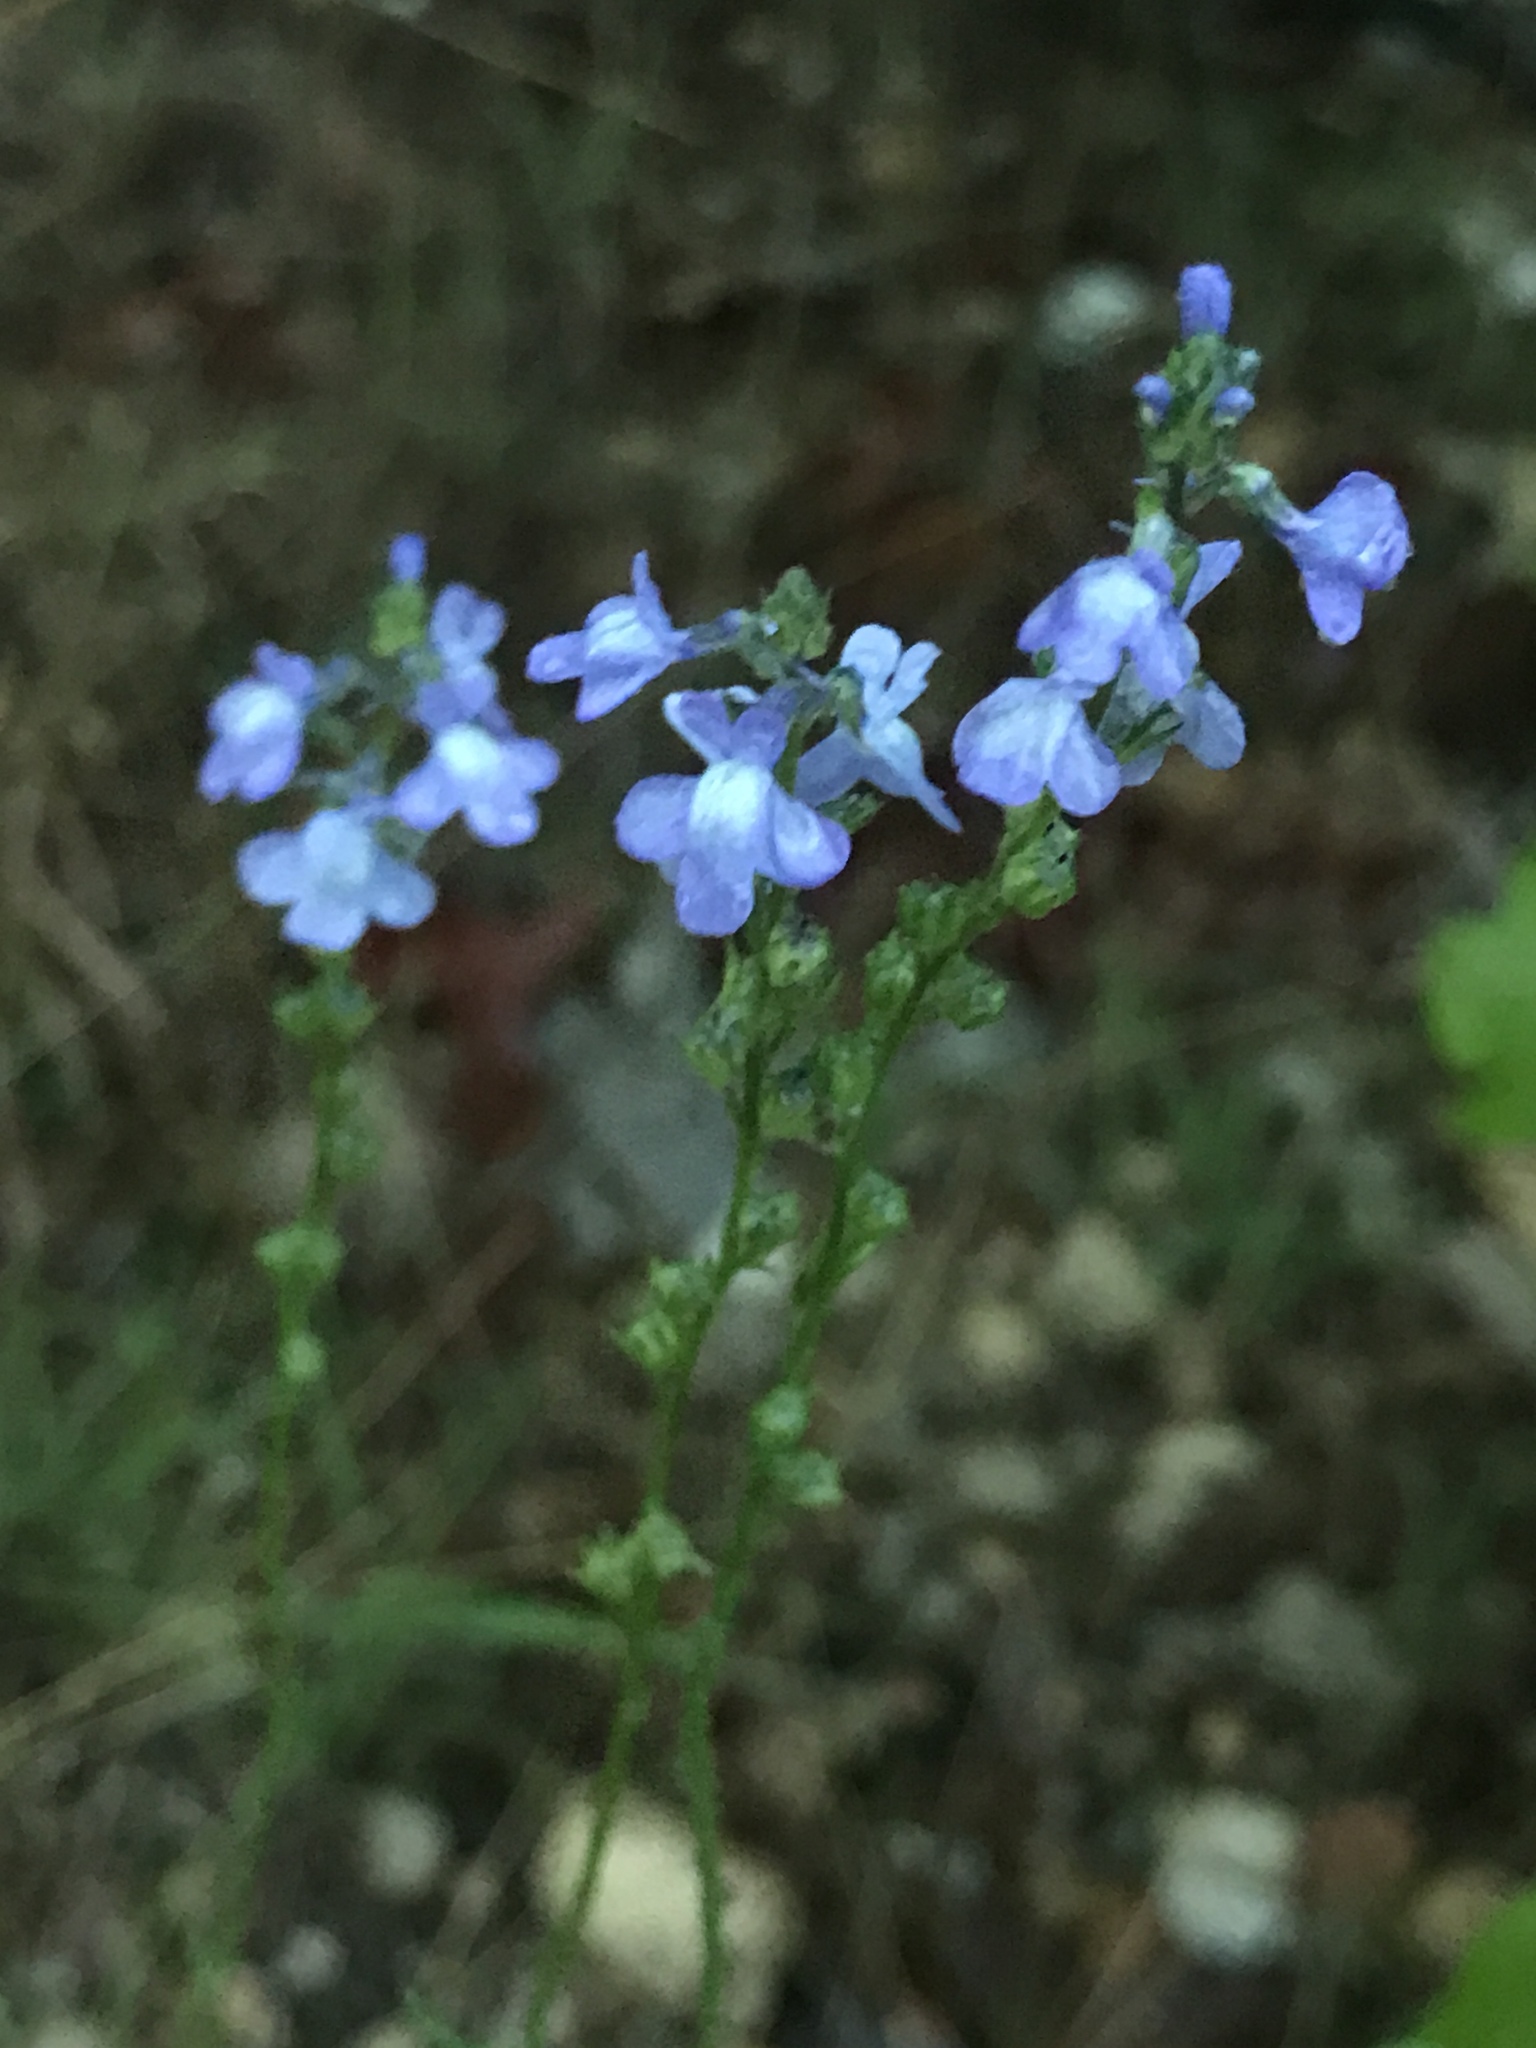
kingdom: Plantae
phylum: Tracheophyta
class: Magnoliopsida
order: Lamiales
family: Plantaginaceae
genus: Nuttallanthus
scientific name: Nuttallanthus canadensis
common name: Blue toadflax
